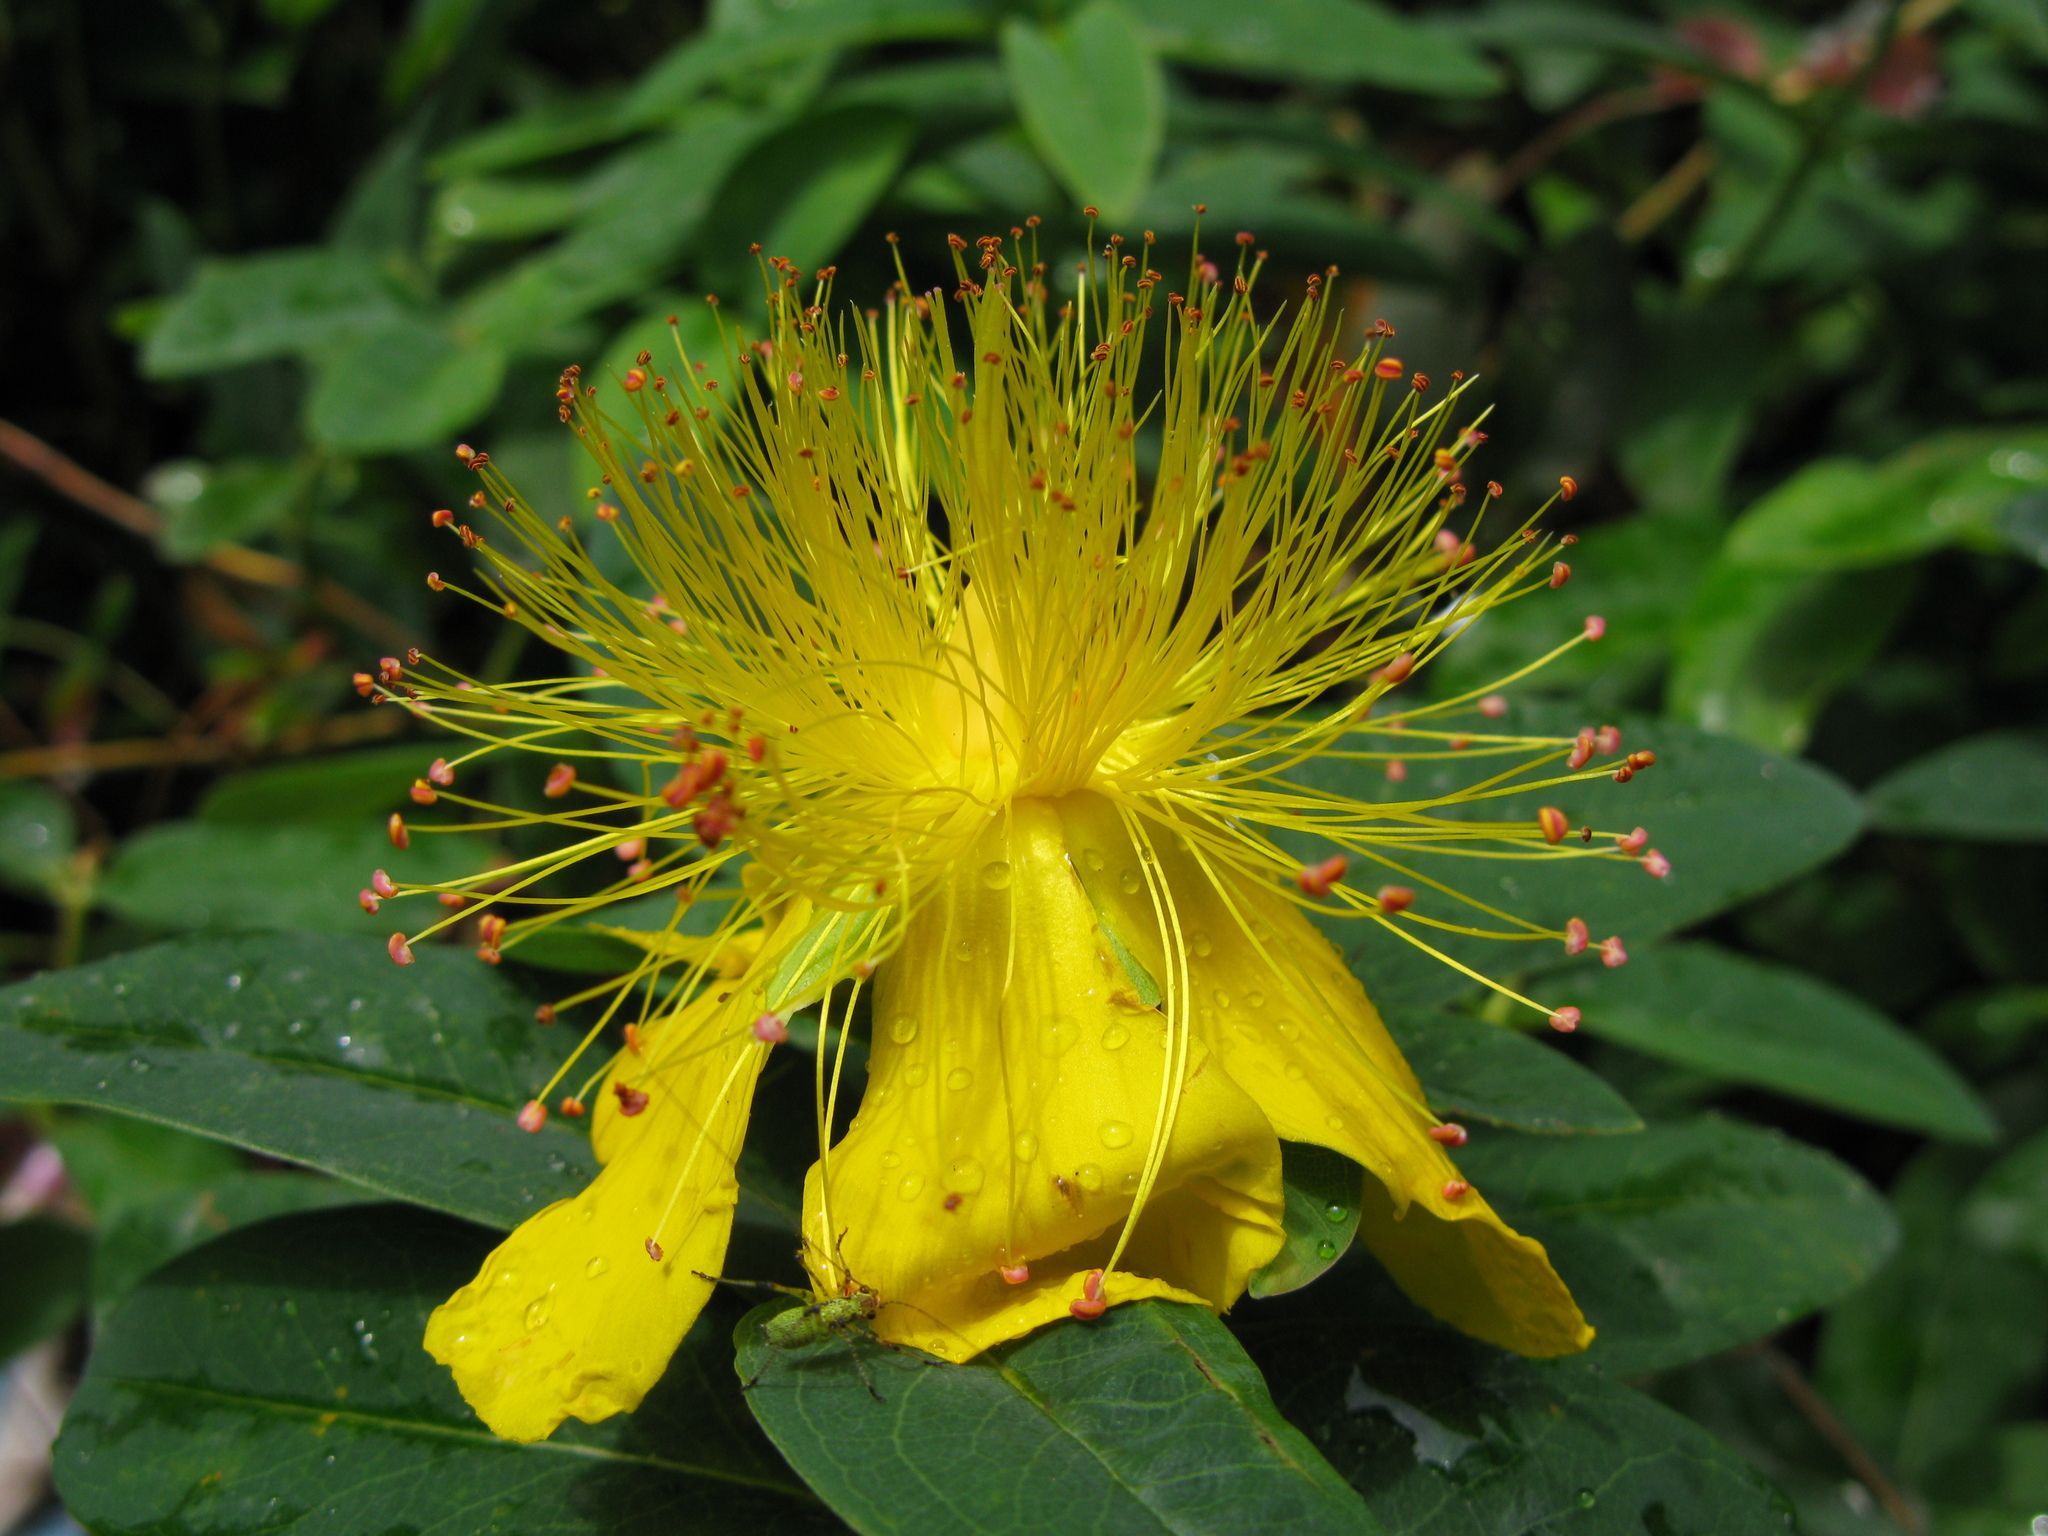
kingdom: Plantae
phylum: Tracheophyta
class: Magnoliopsida
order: Malpighiales
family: Hypericaceae
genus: Hypericum
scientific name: Hypericum calycinum
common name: Rose-of-sharon
